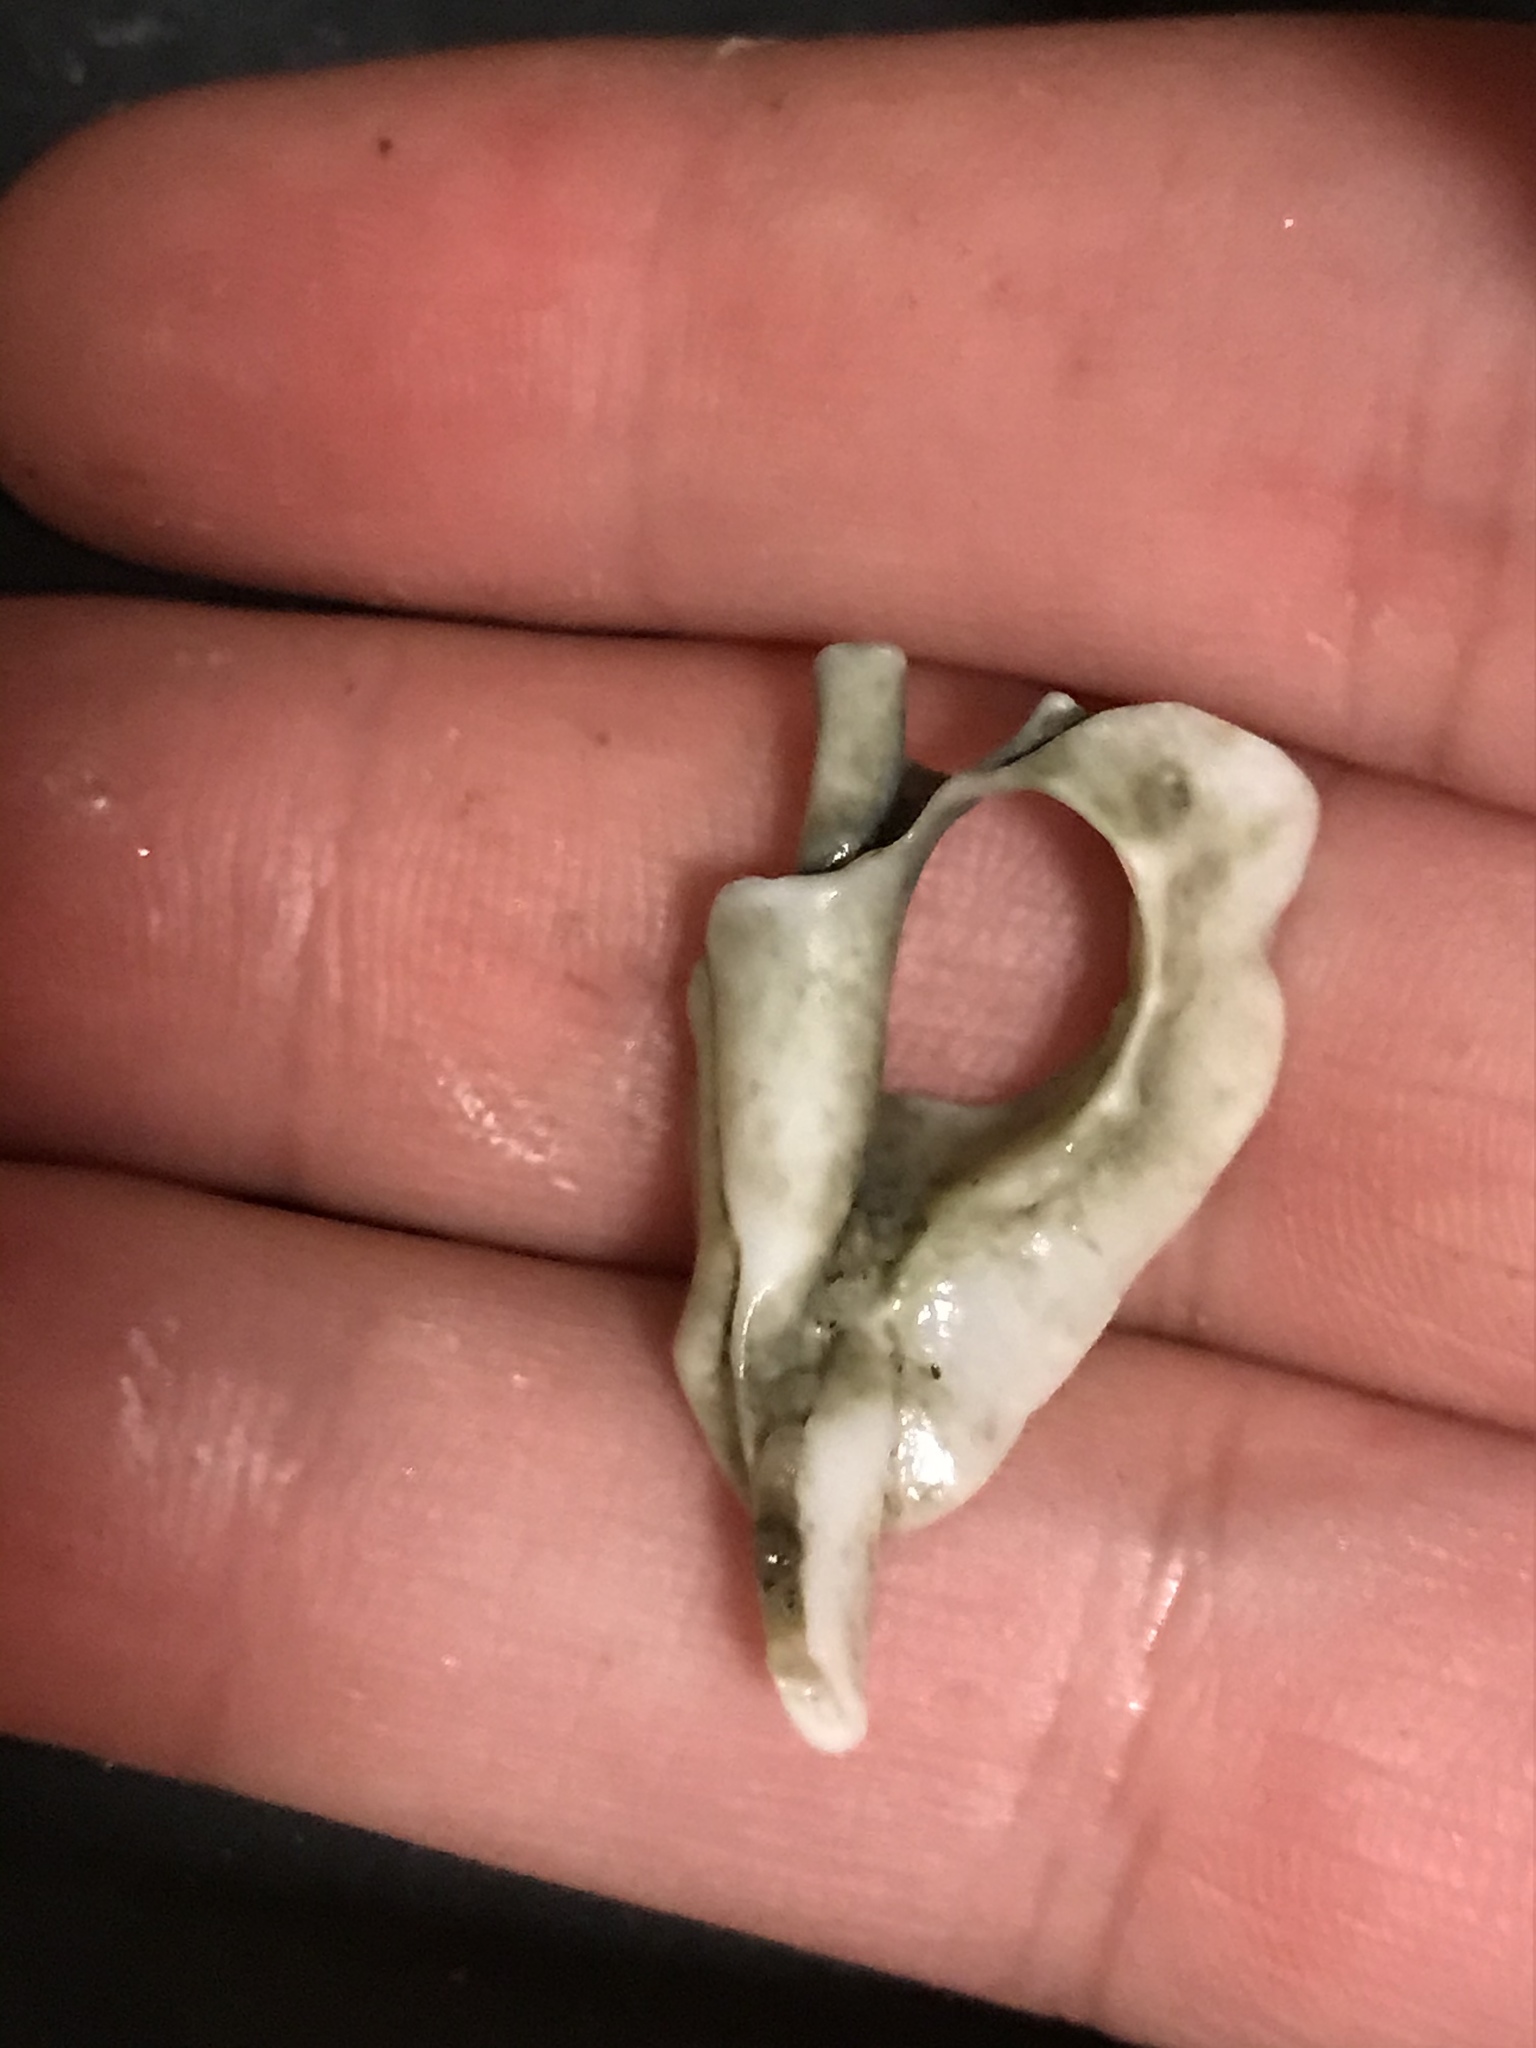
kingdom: Animalia
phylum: Mollusca
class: Gastropoda
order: Neogastropoda
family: Muricidae
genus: Ceratostoma
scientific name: Ceratostoma foliatum
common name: Foliate thorn purpura
